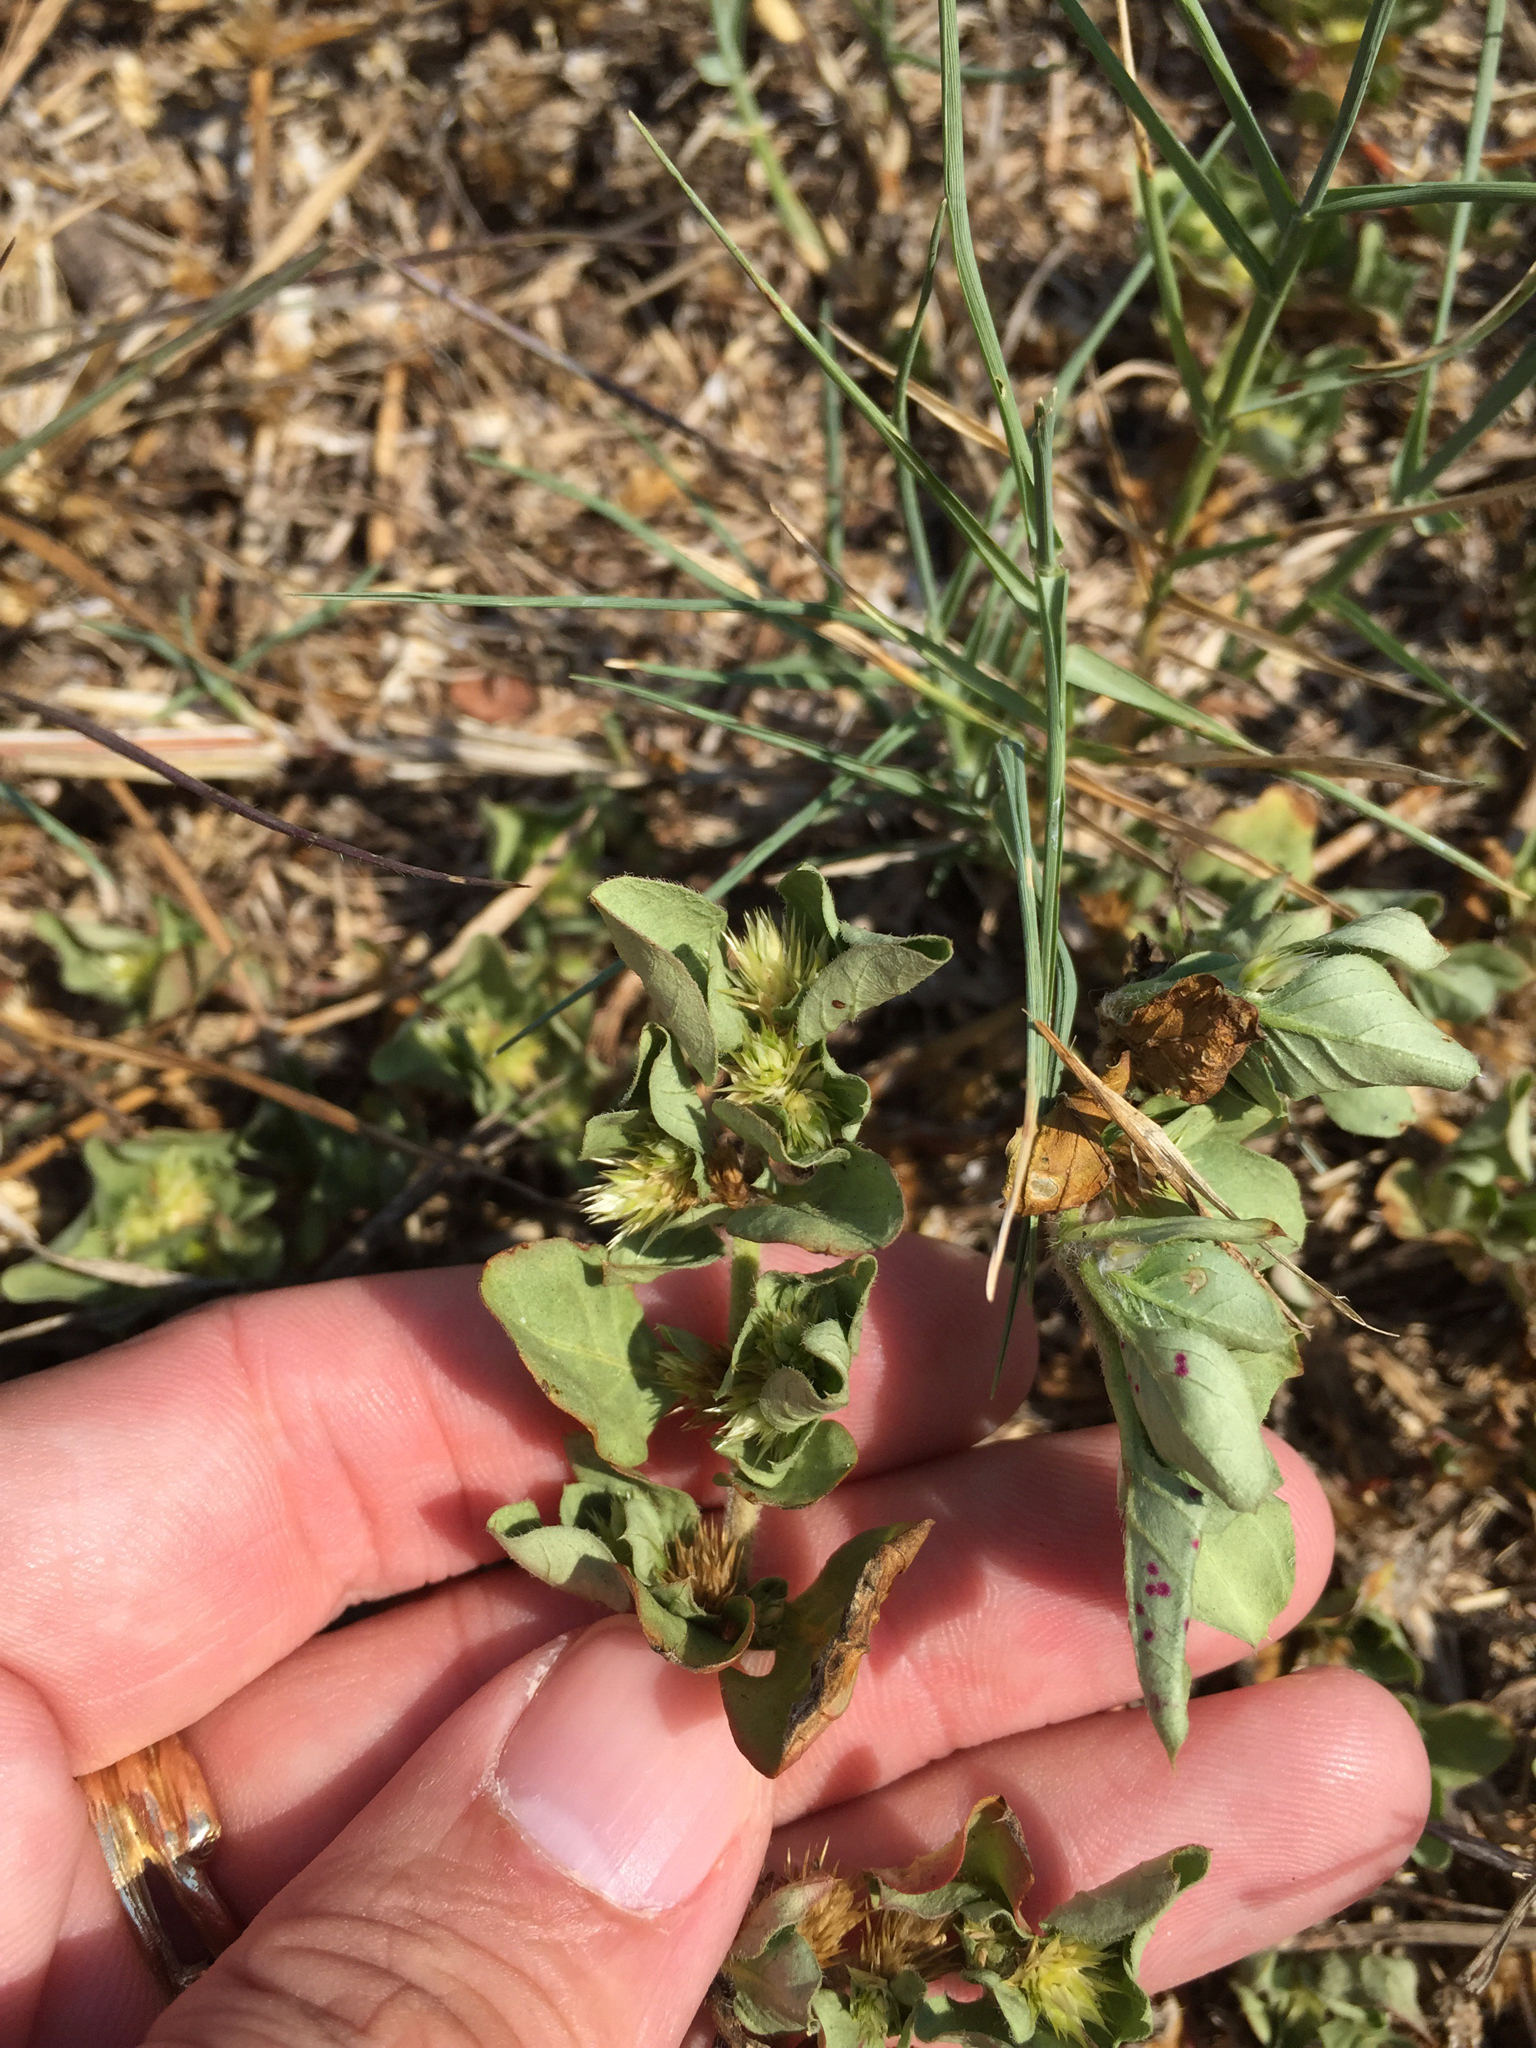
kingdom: Plantae
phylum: Tracheophyta
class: Magnoliopsida
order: Caryophyllales
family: Amaranthaceae
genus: Alternanthera
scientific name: Alternanthera pungens
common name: Khakiweed
